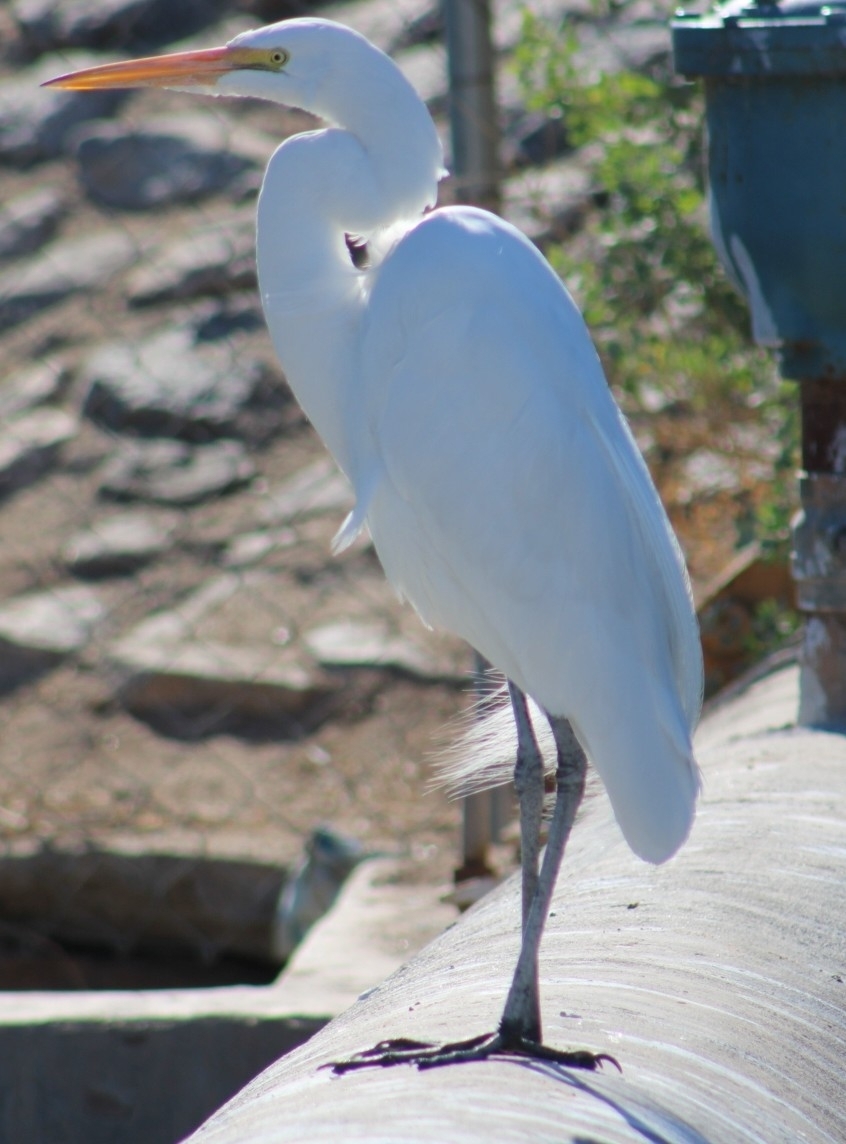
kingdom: Animalia
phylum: Chordata
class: Aves
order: Pelecaniformes
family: Ardeidae
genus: Ardea
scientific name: Ardea alba
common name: Great egret
